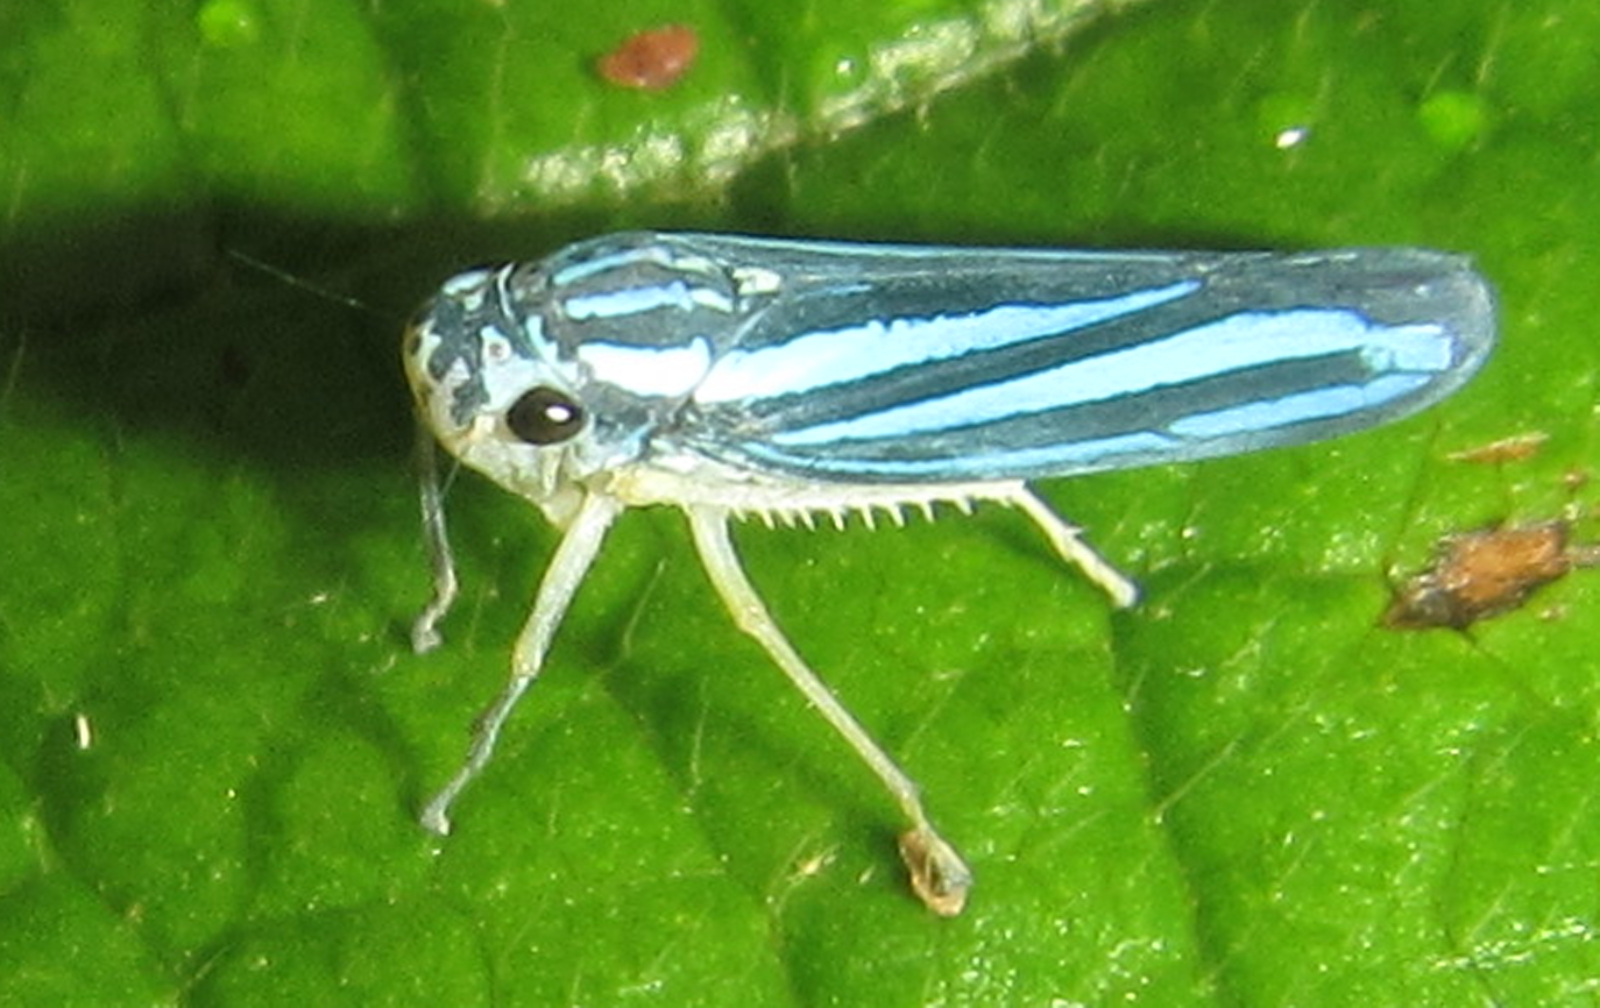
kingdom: Animalia
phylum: Arthropoda
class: Insecta
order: Hemiptera
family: Cicadellidae
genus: Tettigoniella
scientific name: Tettigoniella cosmopolita
